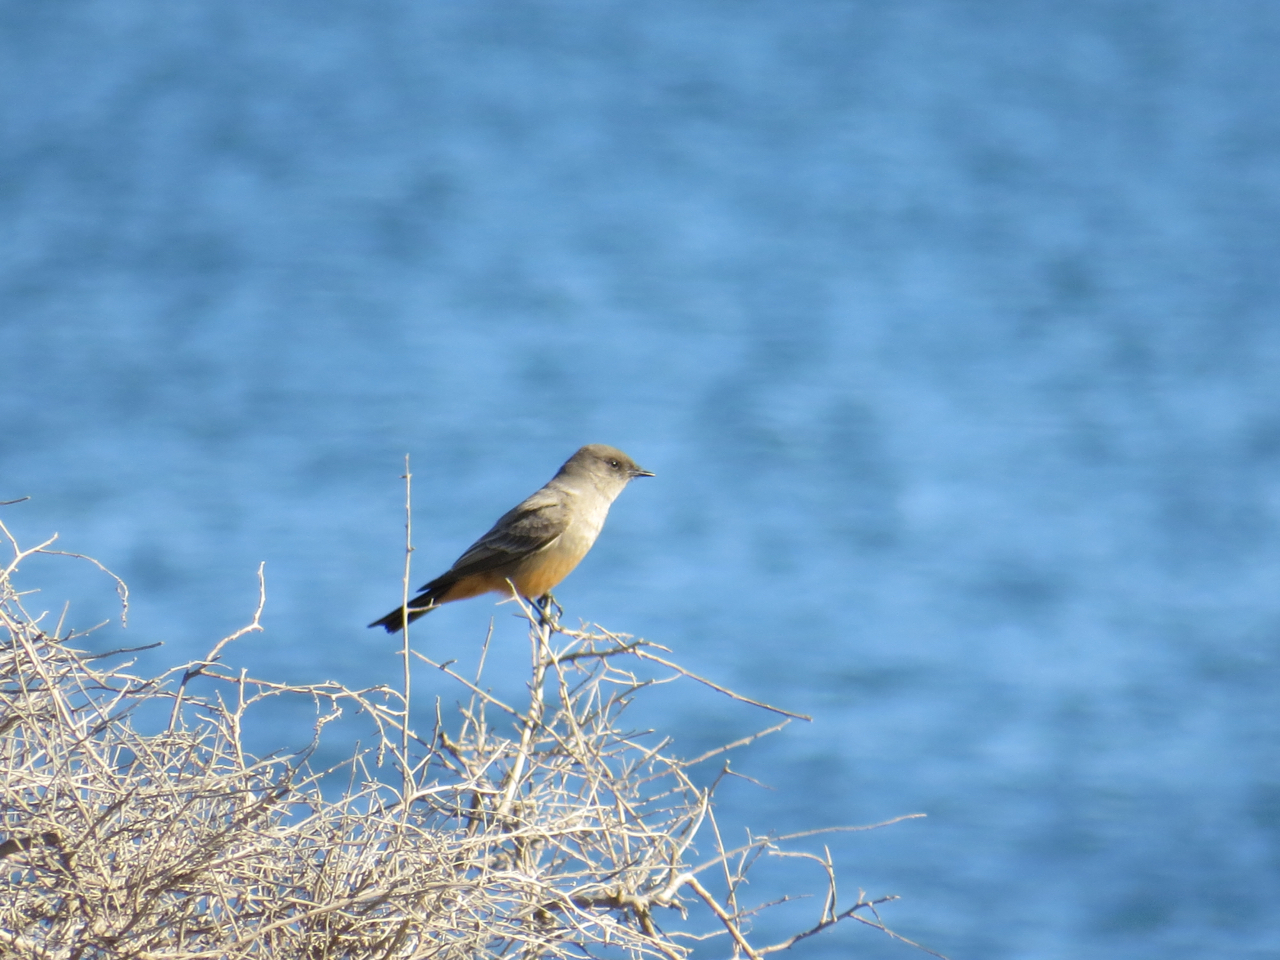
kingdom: Animalia
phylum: Chordata
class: Aves
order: Passeriformes
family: Tyrannidae
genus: Sayornis
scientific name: Sayornis saya
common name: Say's phoebe
